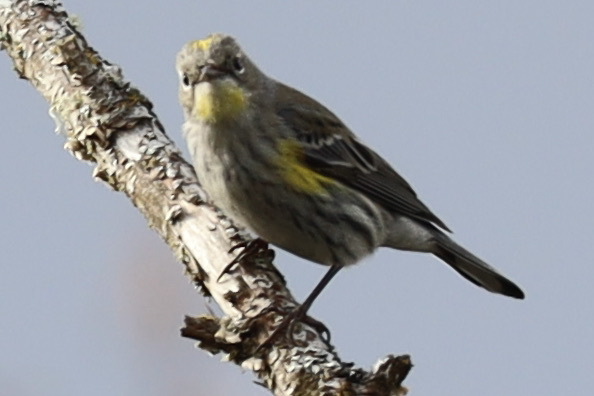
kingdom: Animalia
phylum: Chordata
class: Aves
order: Passeriformes
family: Parulidae
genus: Setophaga
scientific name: Setophaga auduboni
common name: Audubon's warbler
